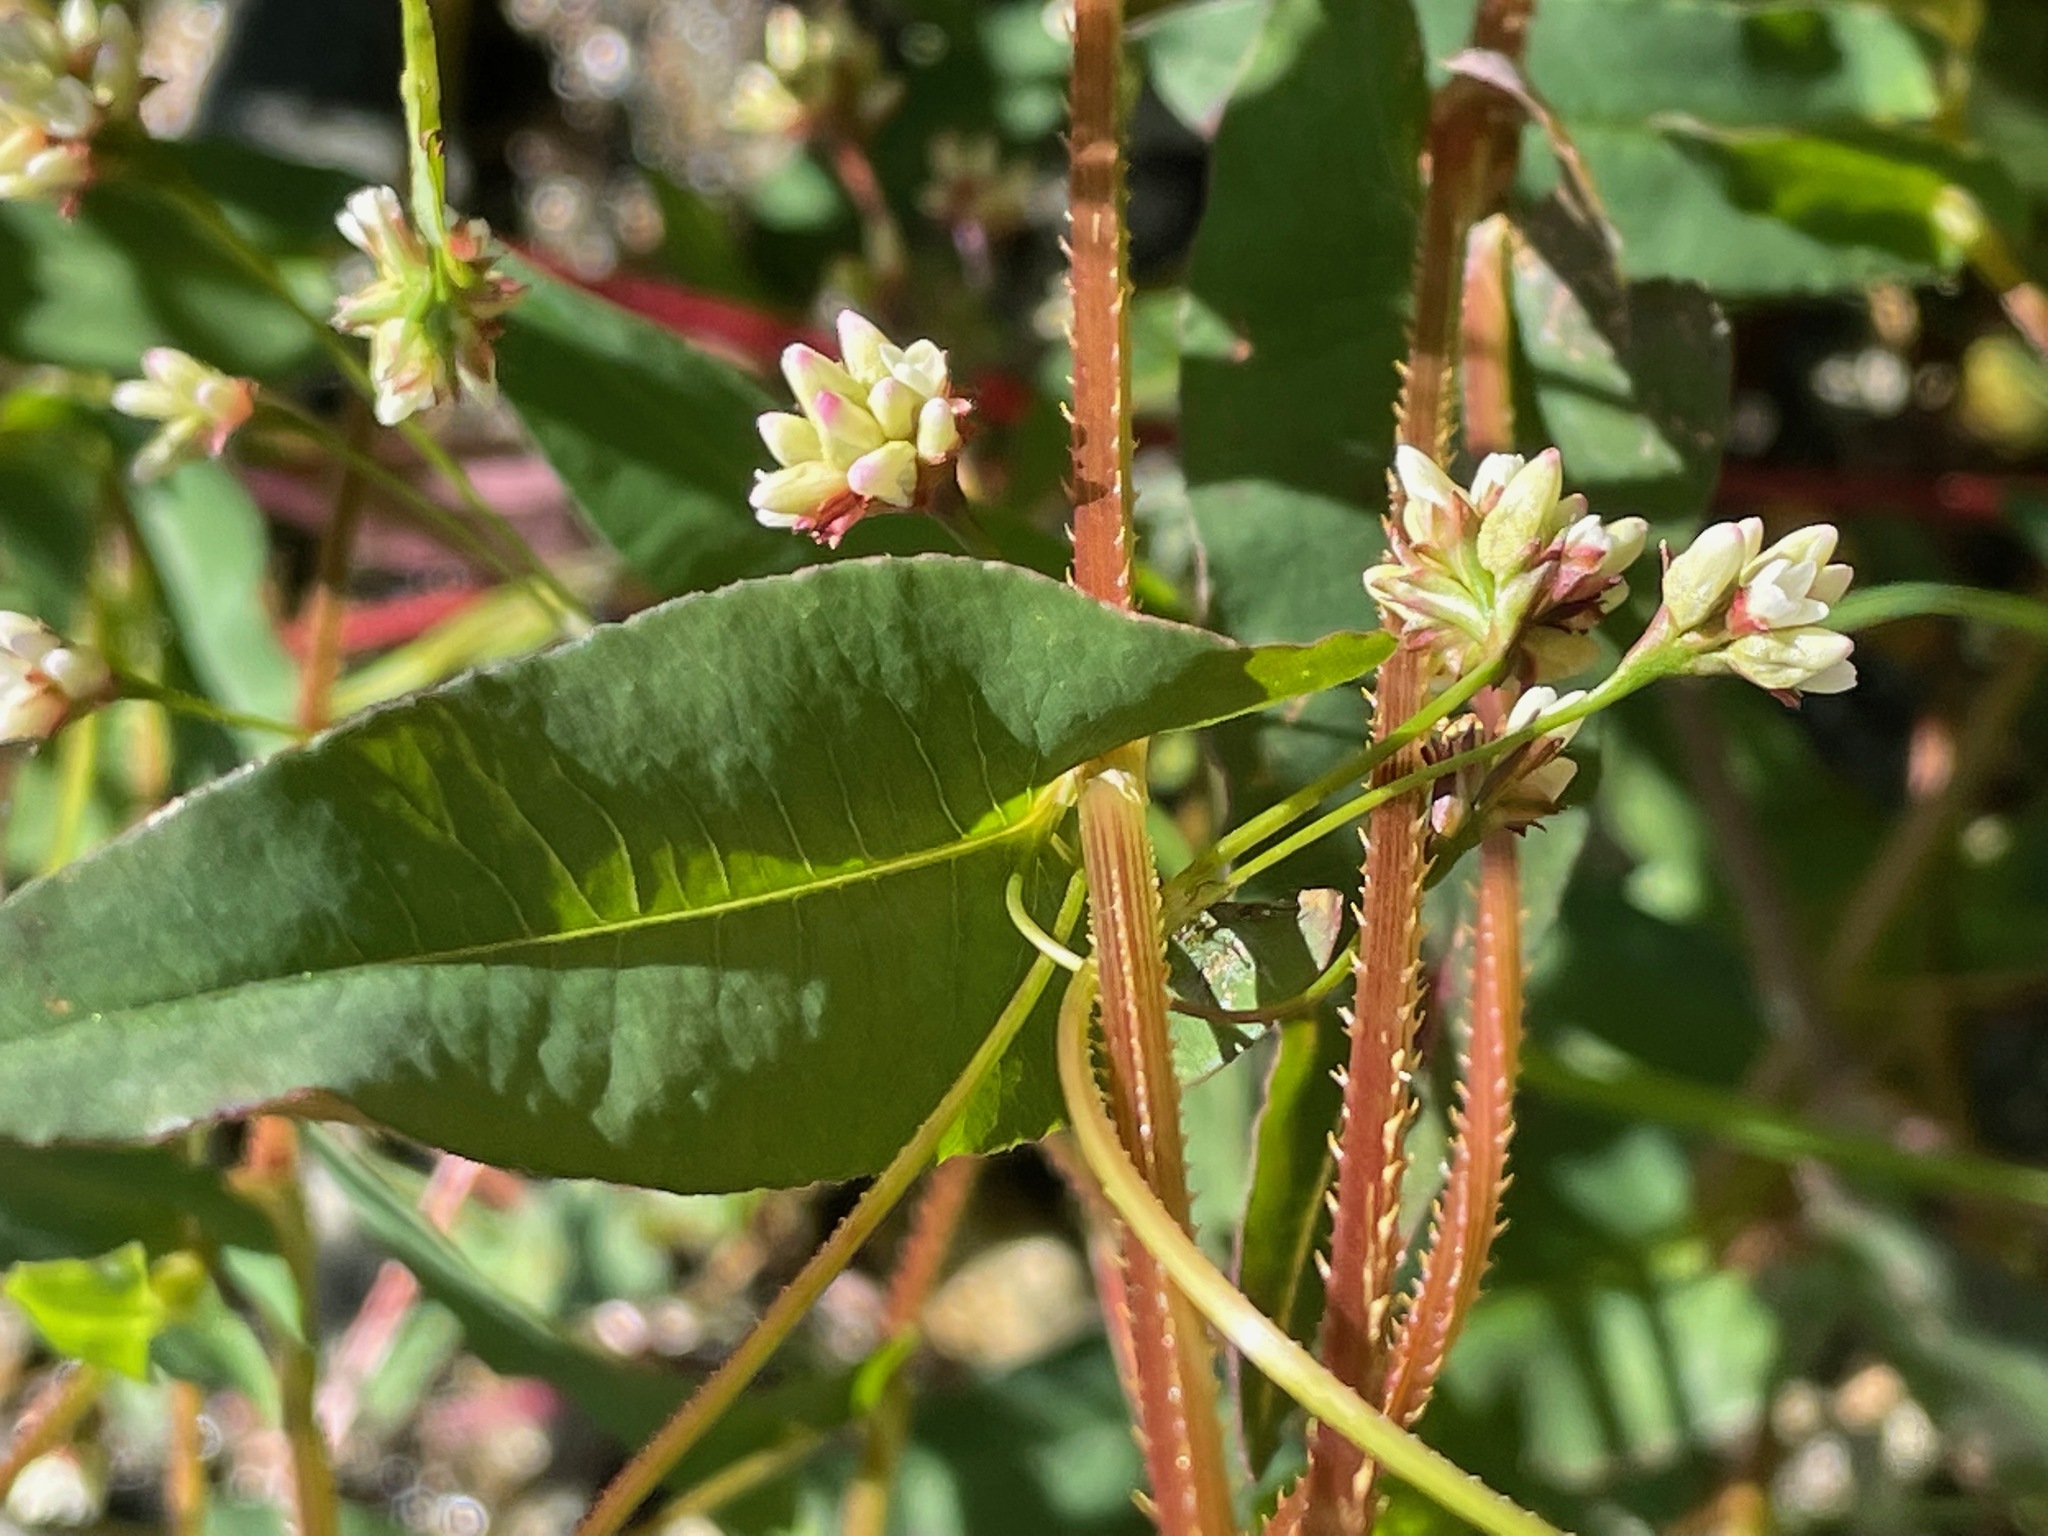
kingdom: Plantae
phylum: Tracheophyta
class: Magnoliopsida
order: Caryophyllales
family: Polygonaceae
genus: Persicaria
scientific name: Persicaria sagittata
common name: American tearthumb
